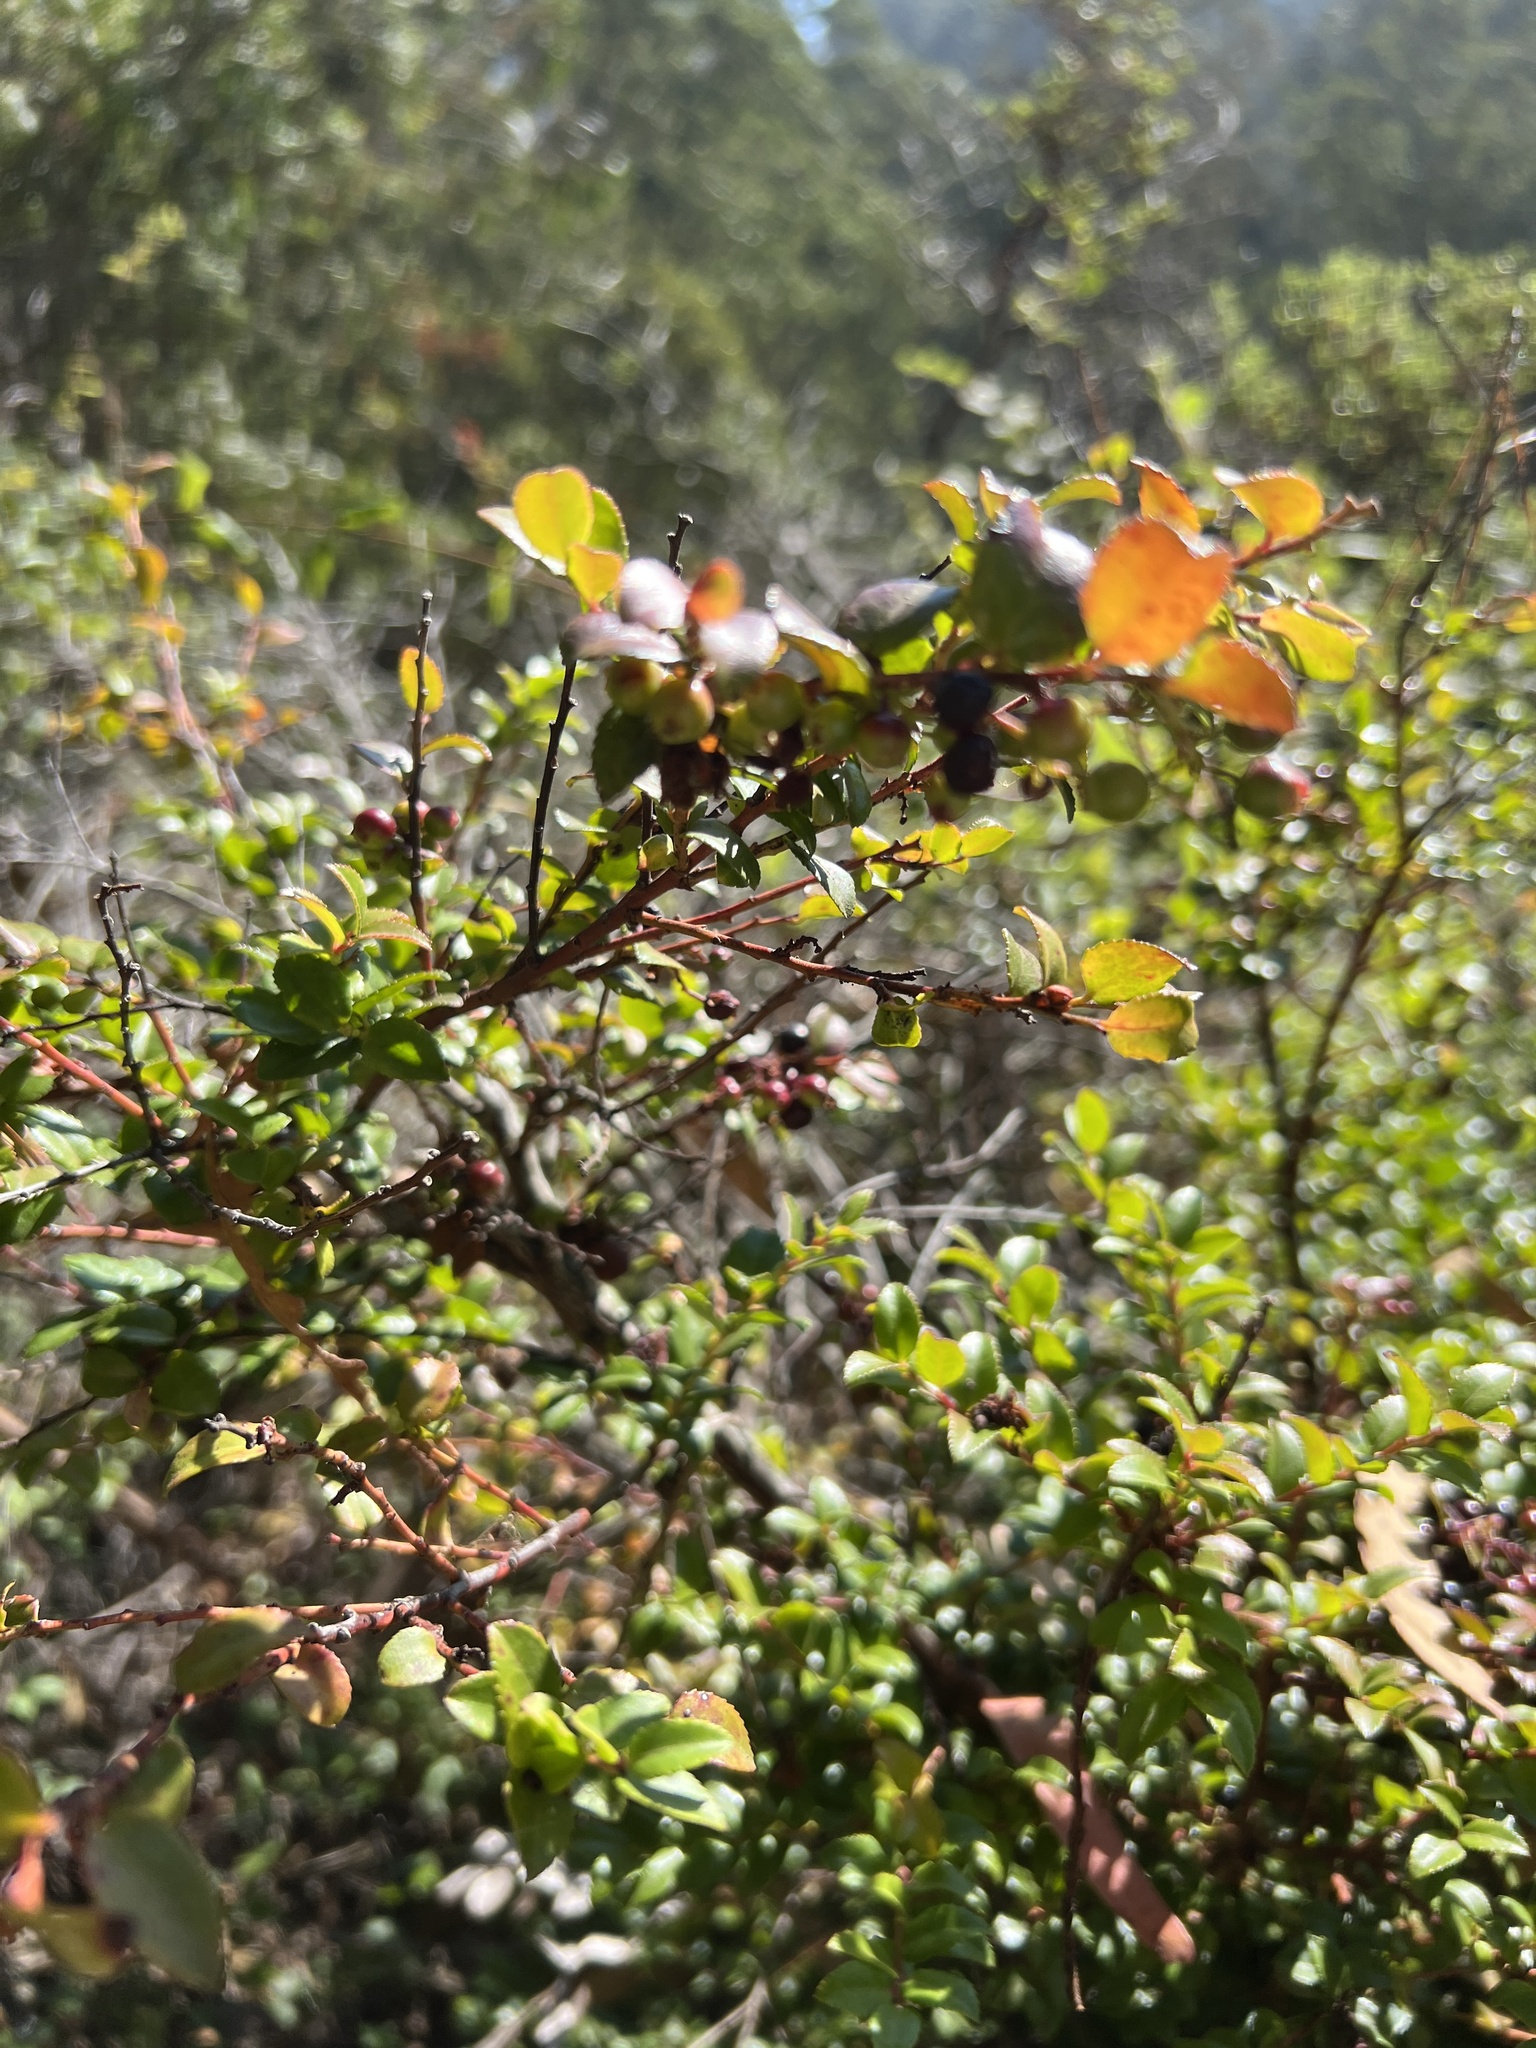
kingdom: Plantae
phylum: Tracheophyta
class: Magnoliopsida
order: Ericales
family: Ericaceae
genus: Vaccinium
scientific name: Vaccinium ovatum
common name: California-huckleberry
